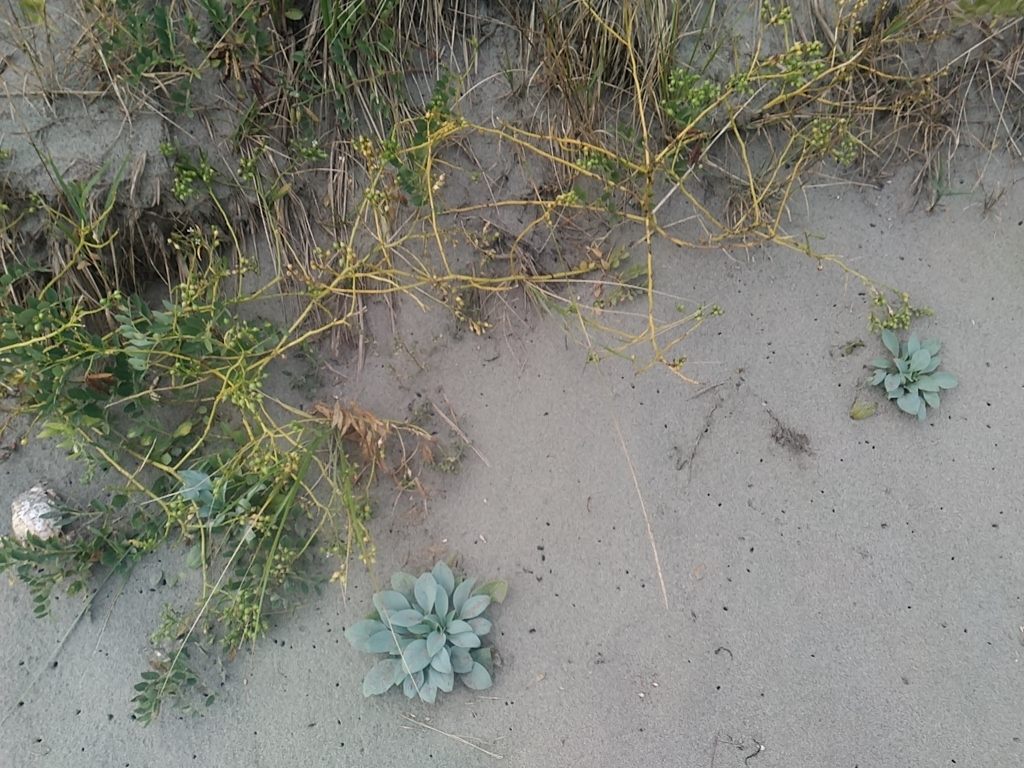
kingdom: Plantae
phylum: Tracheophyta
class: Magnoliopsida
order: Boraginales
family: Boraginaceae
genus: Mertensia
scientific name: Mertensia maritima
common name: Oysterplant
